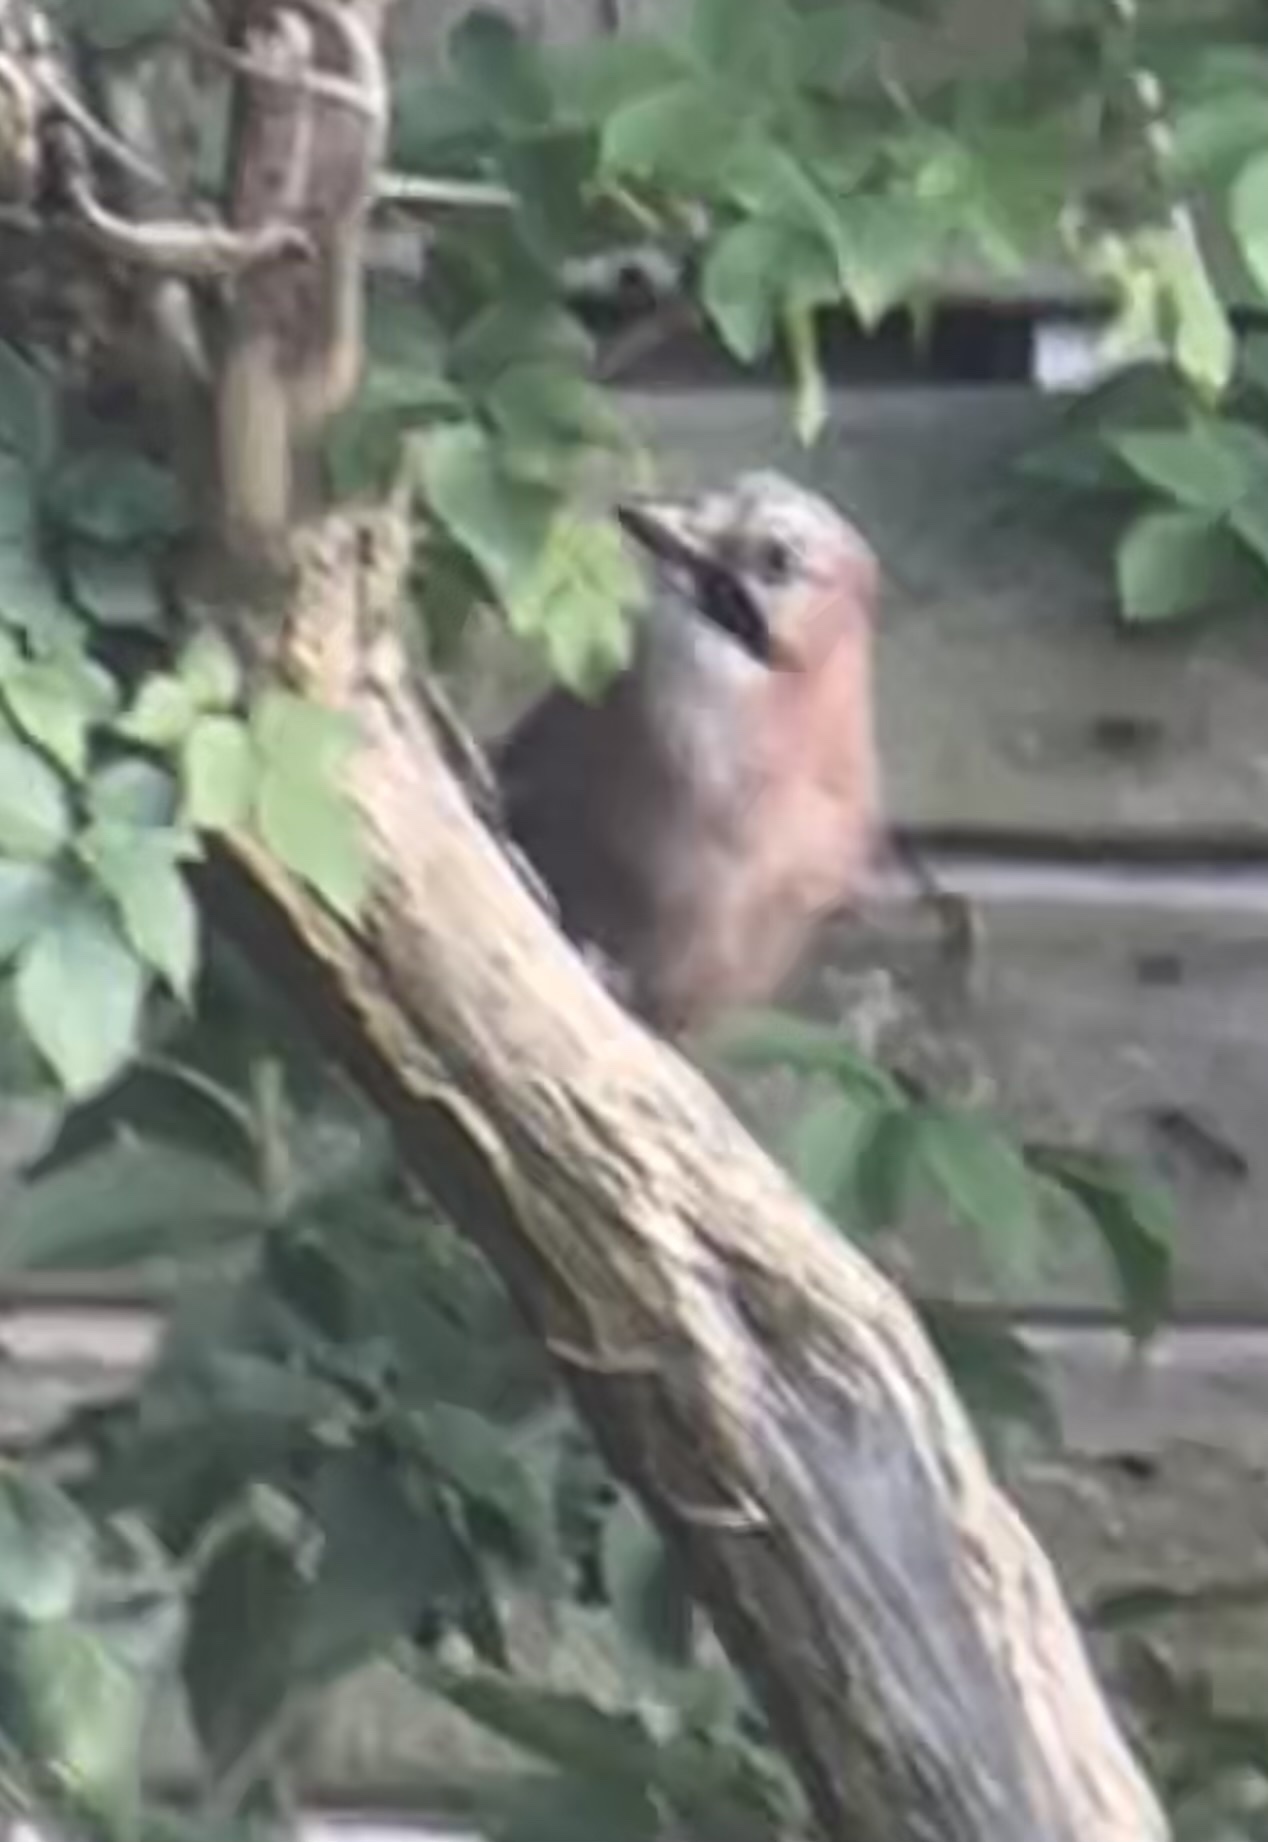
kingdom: Animalia
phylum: Chordata
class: Aves
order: Passeriformes
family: Corvidae
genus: Garrulus
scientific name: Garrulus glandarius
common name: Eurasian jay
